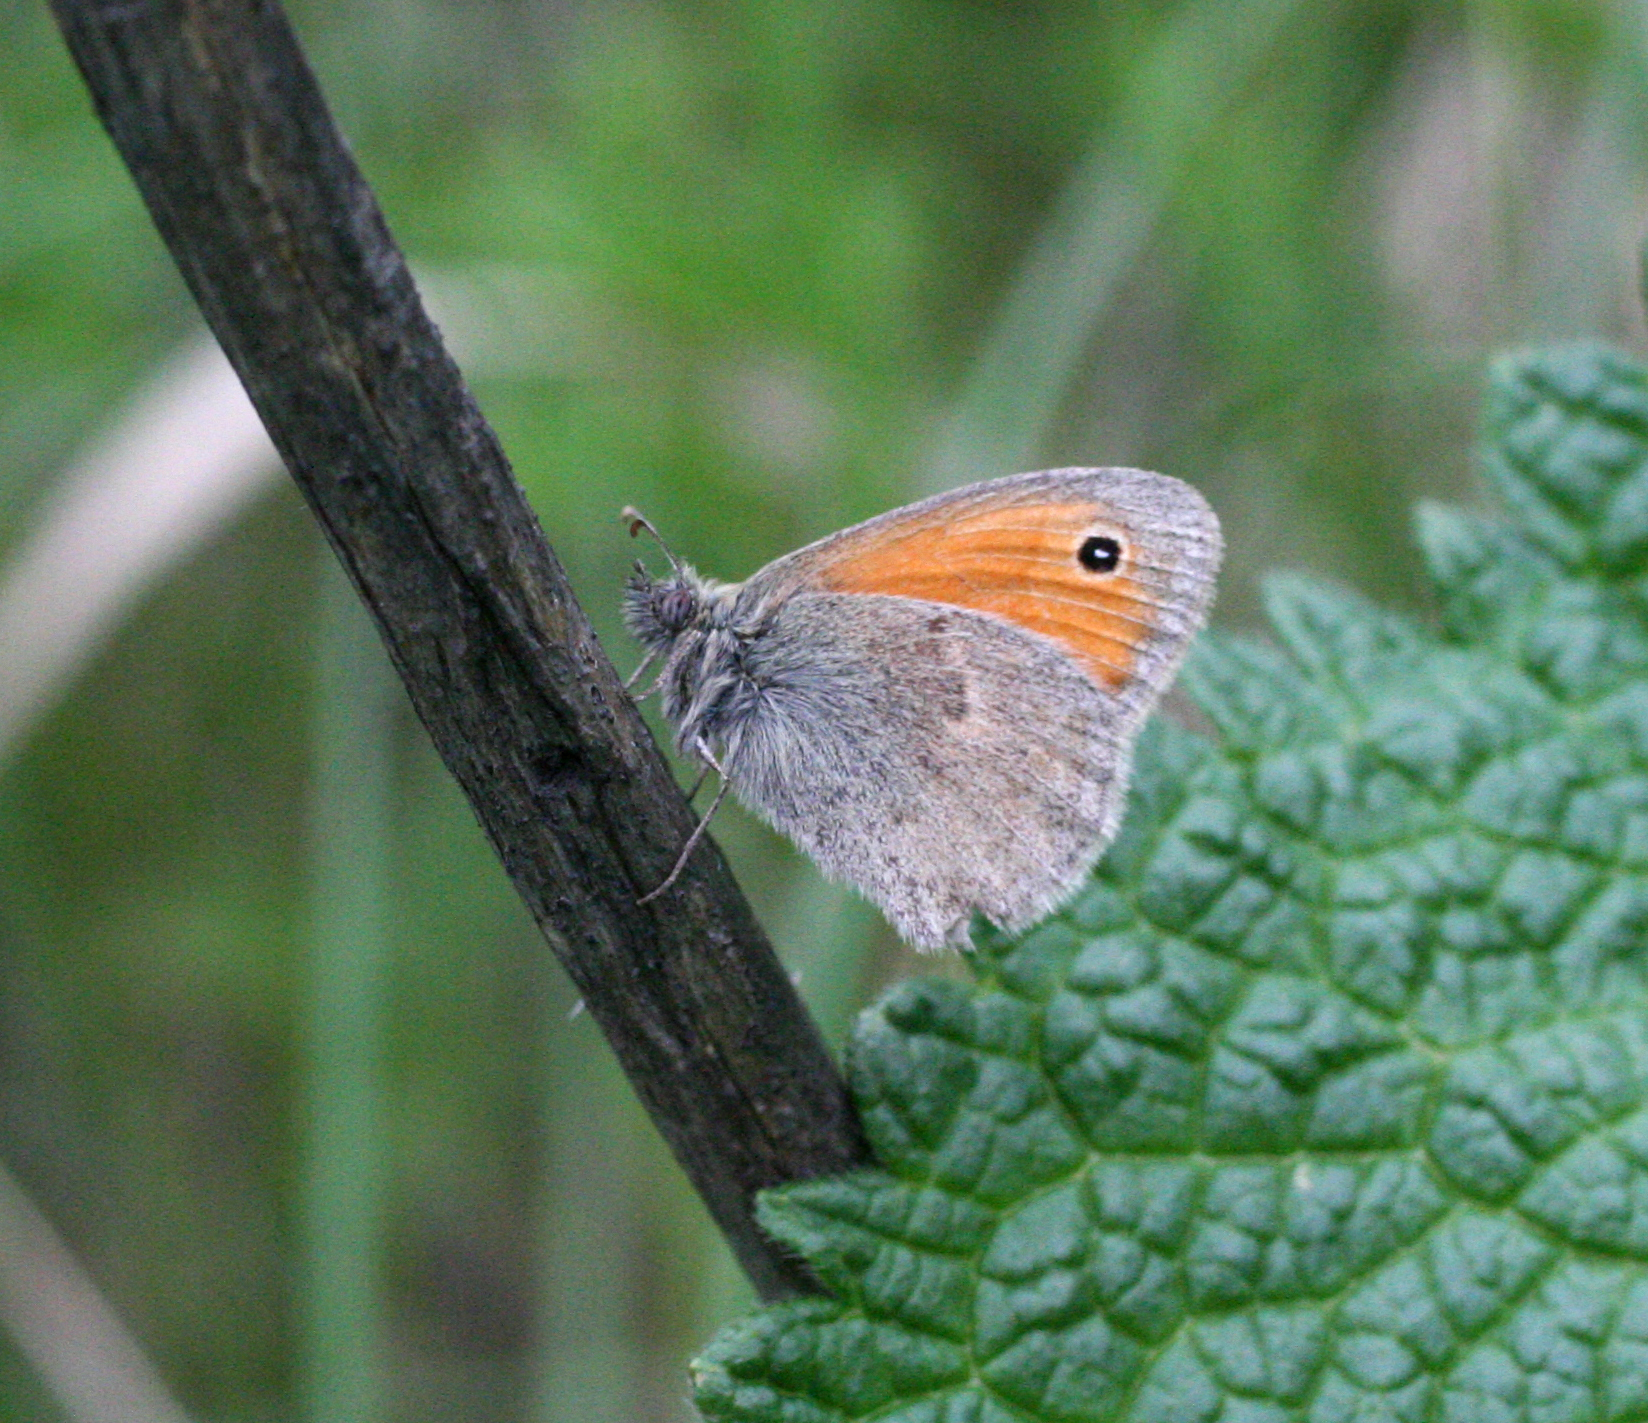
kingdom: Animalia
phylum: Arthropoda
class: Insecta
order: Lepidoptera
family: Nymphalidae
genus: Coenonympha
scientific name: Coenonympha pamphilus
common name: Small heath
